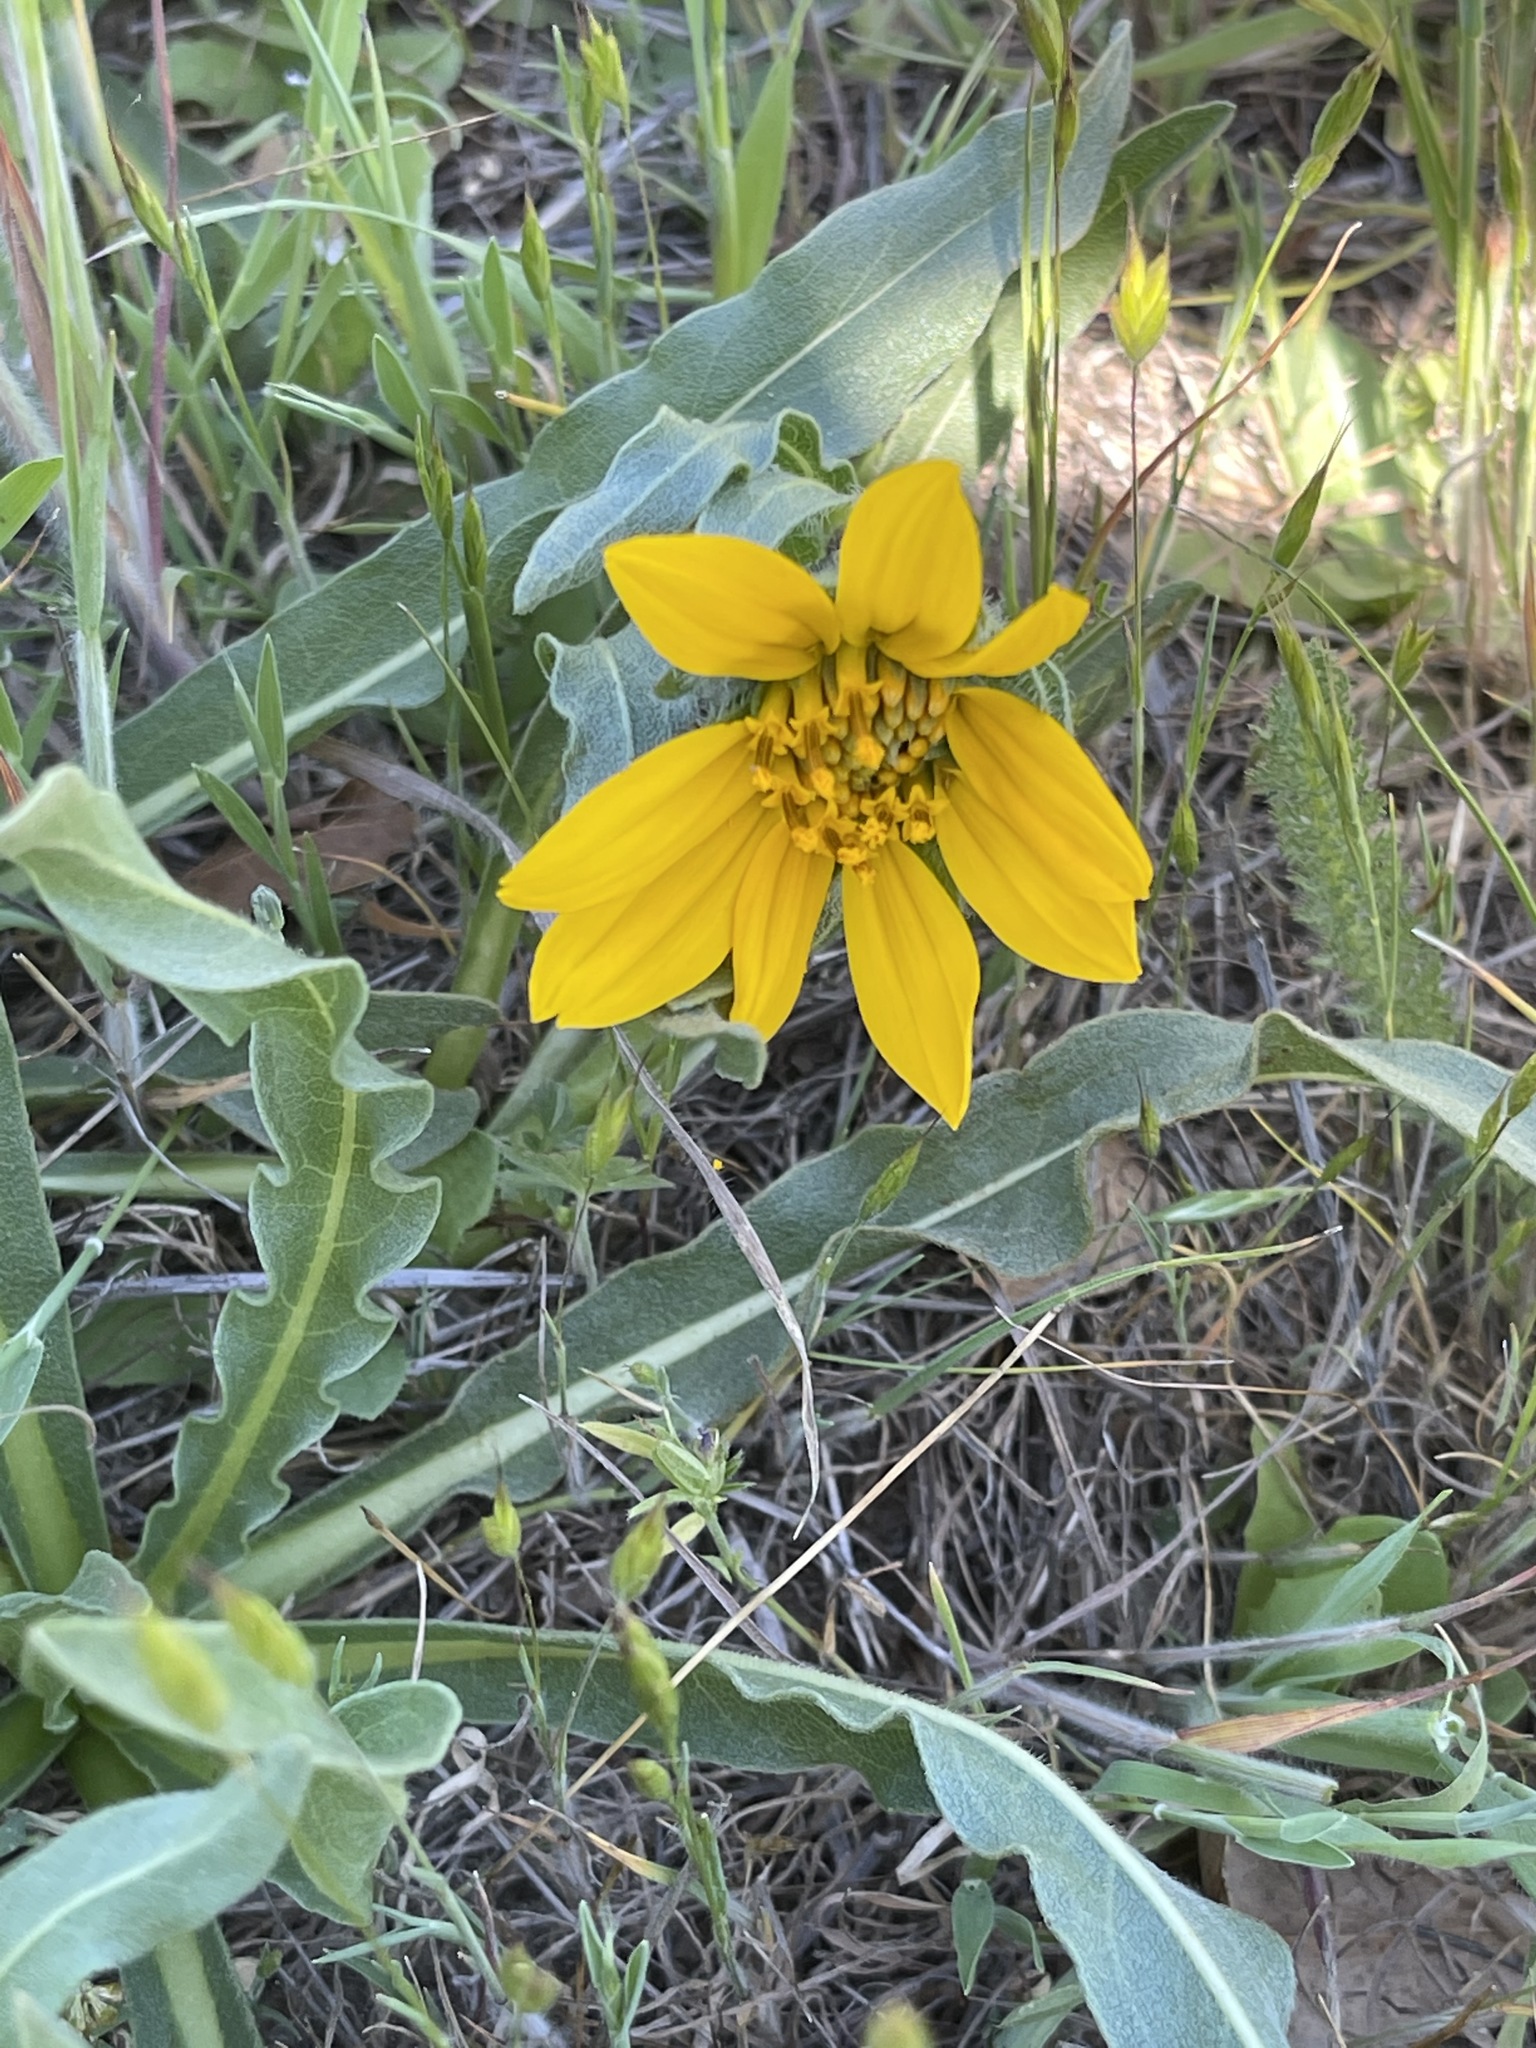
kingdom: Plantae
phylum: Tracheophyta
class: Magnoliopsida
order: Asterales
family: Asteraceae
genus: Wyethia
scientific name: Wyethia angustifolia
